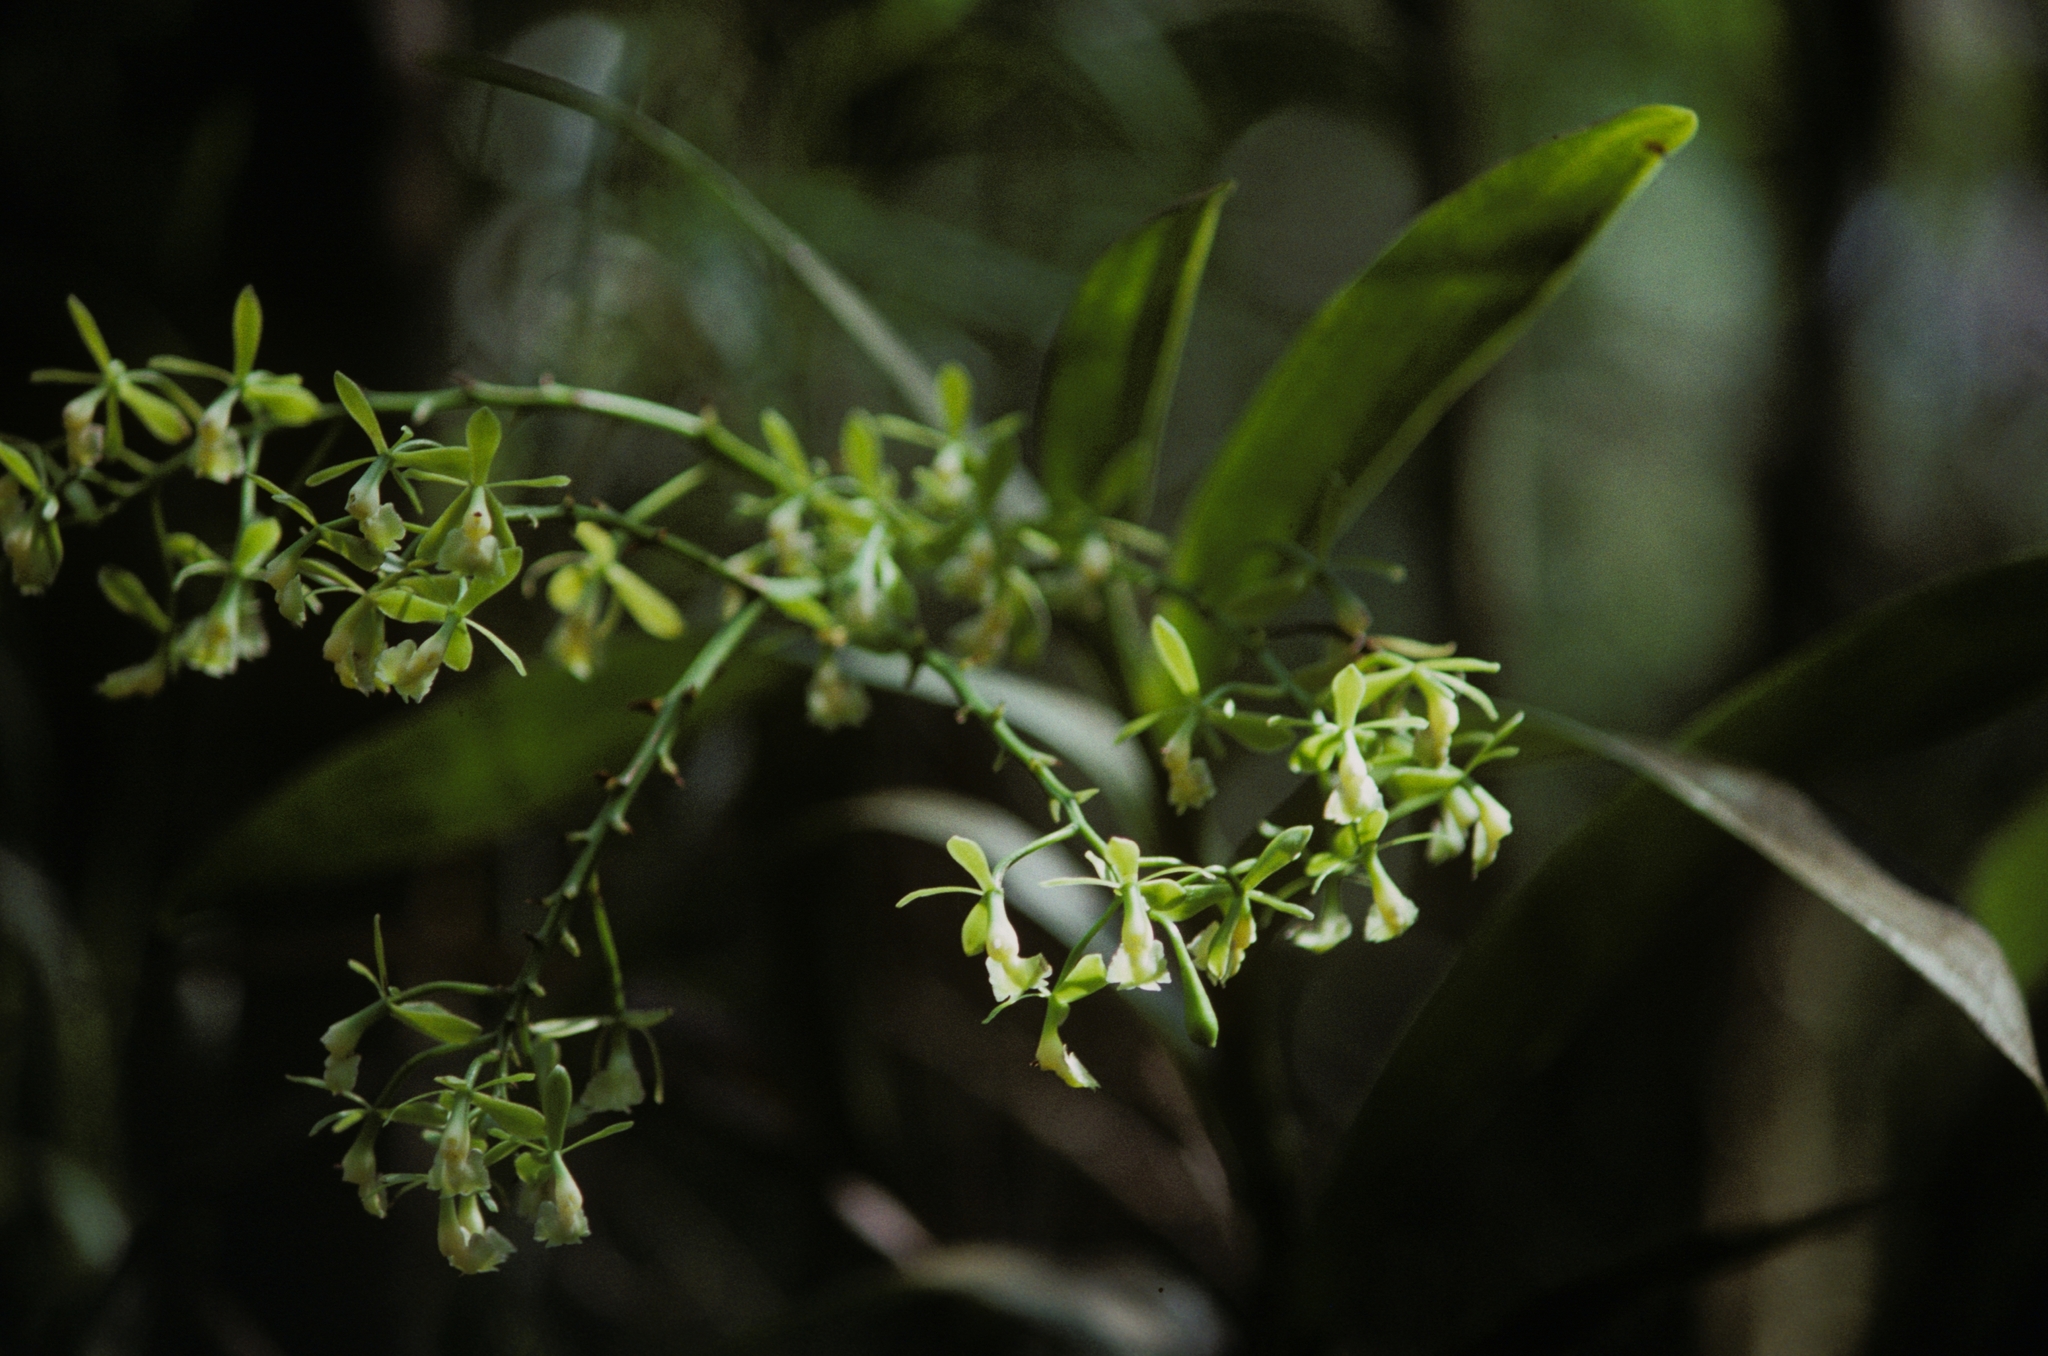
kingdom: Plantae
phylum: Tracheophyta
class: Liliopsida
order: Asparagales
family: Orchidaceae
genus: Epidendrum
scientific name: Epidendrum densiflorum
